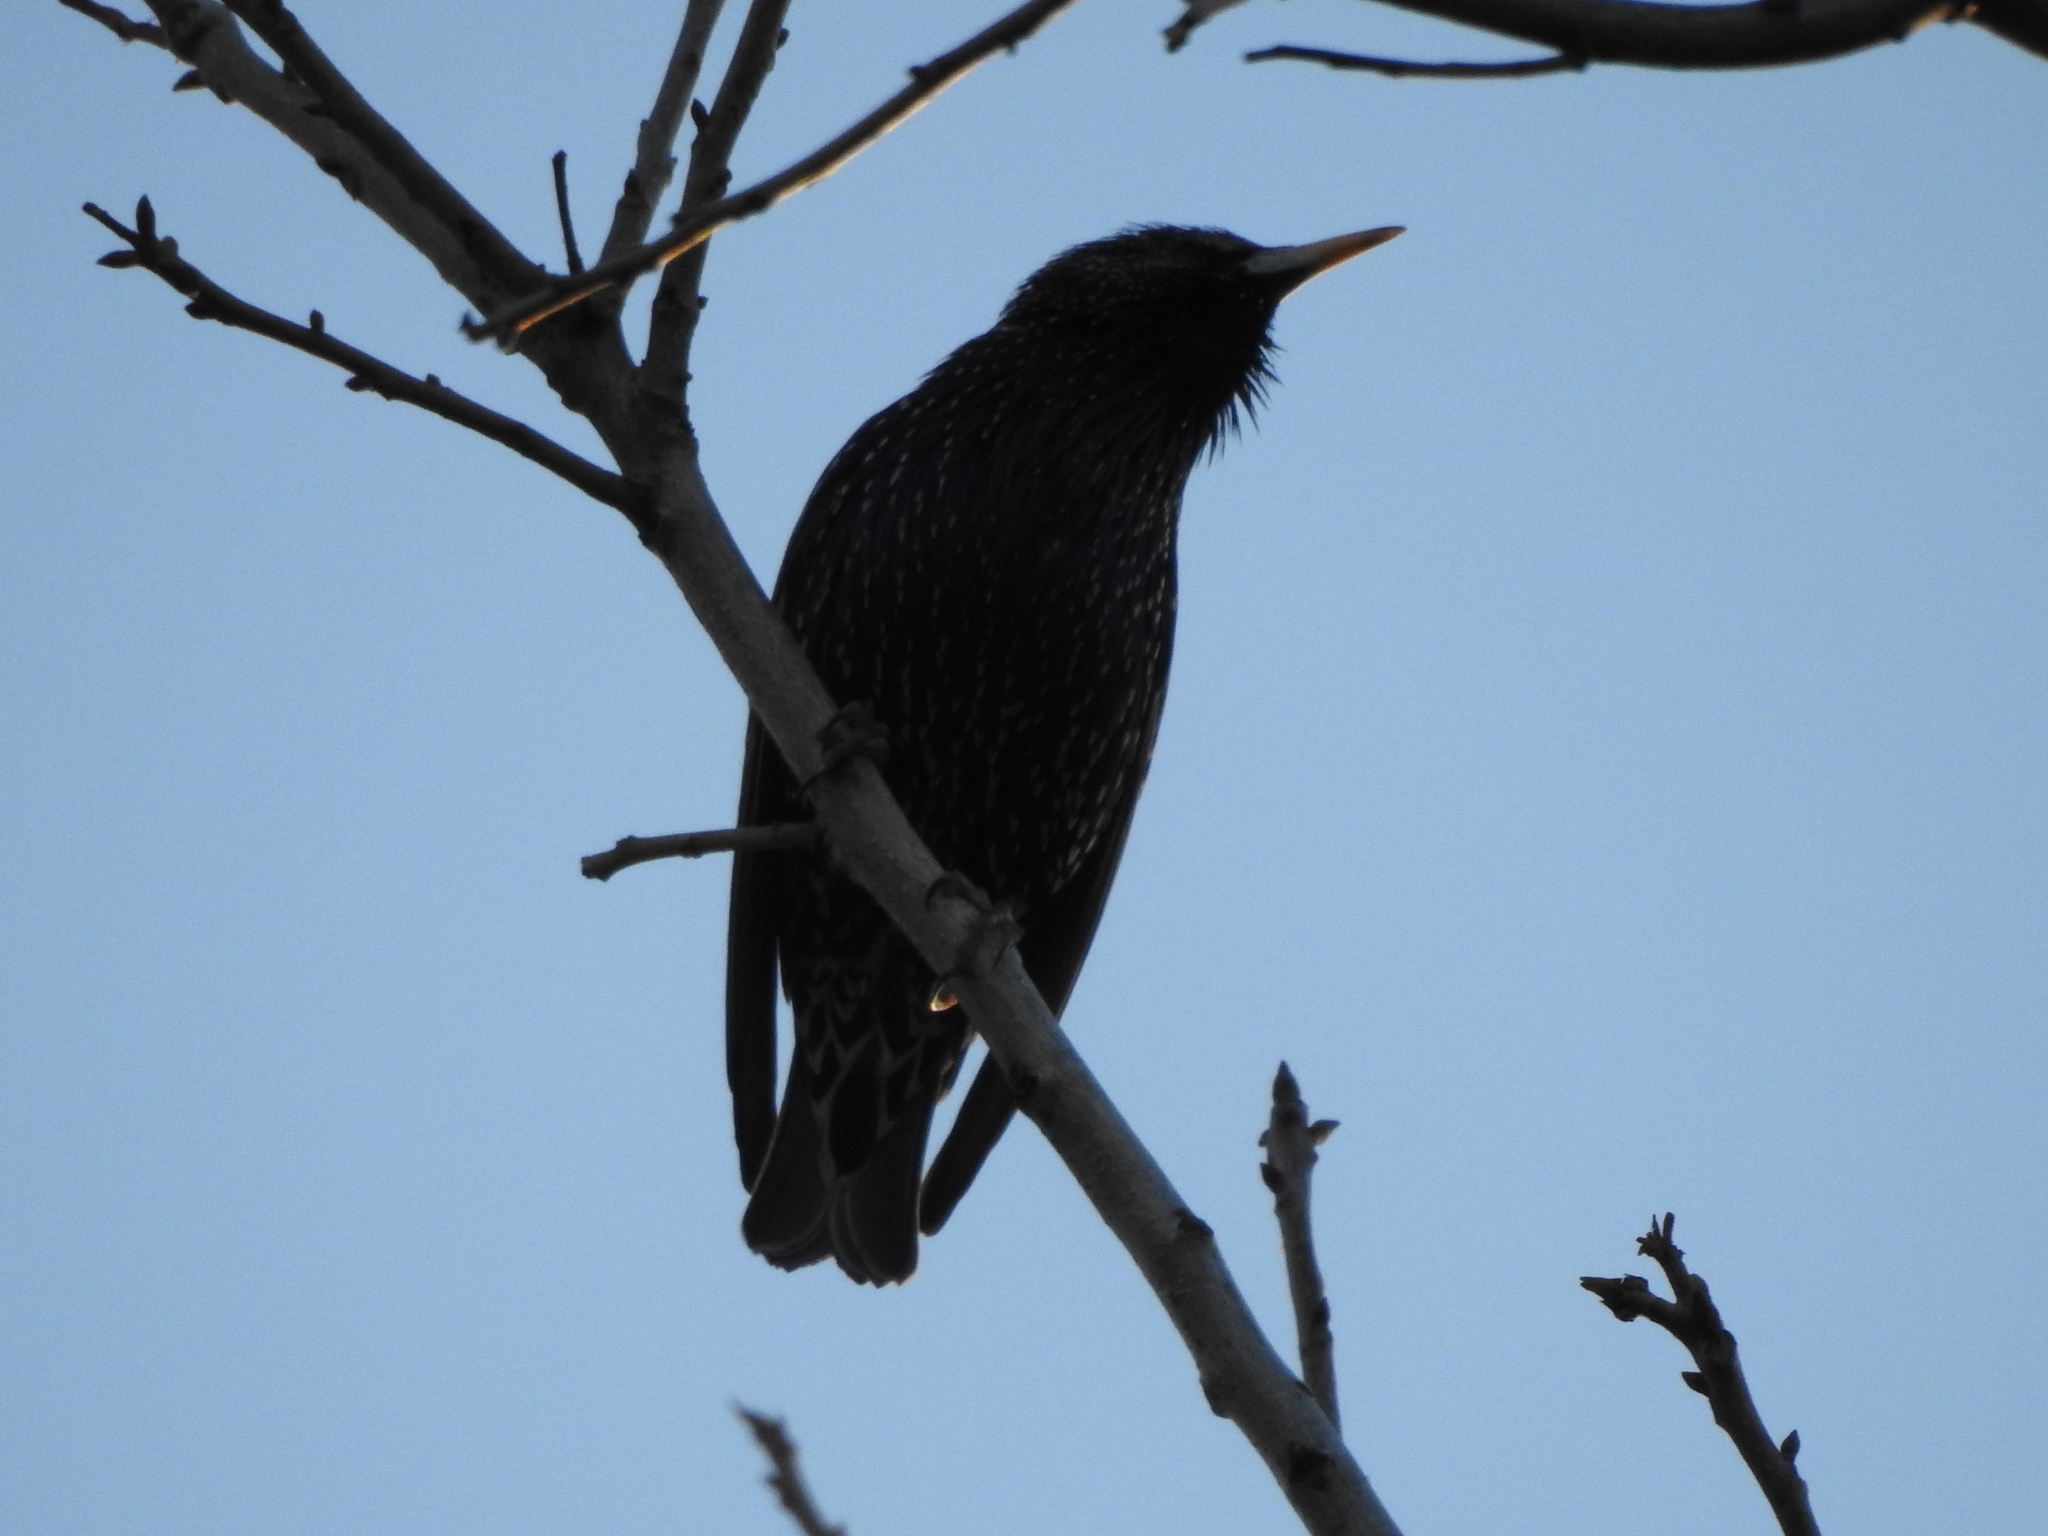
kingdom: Animalia
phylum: Chordata
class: Aves
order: Passeriformes
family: Sturnidae
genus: Sturnus
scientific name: Sturnus vulgaris
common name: Common starling
